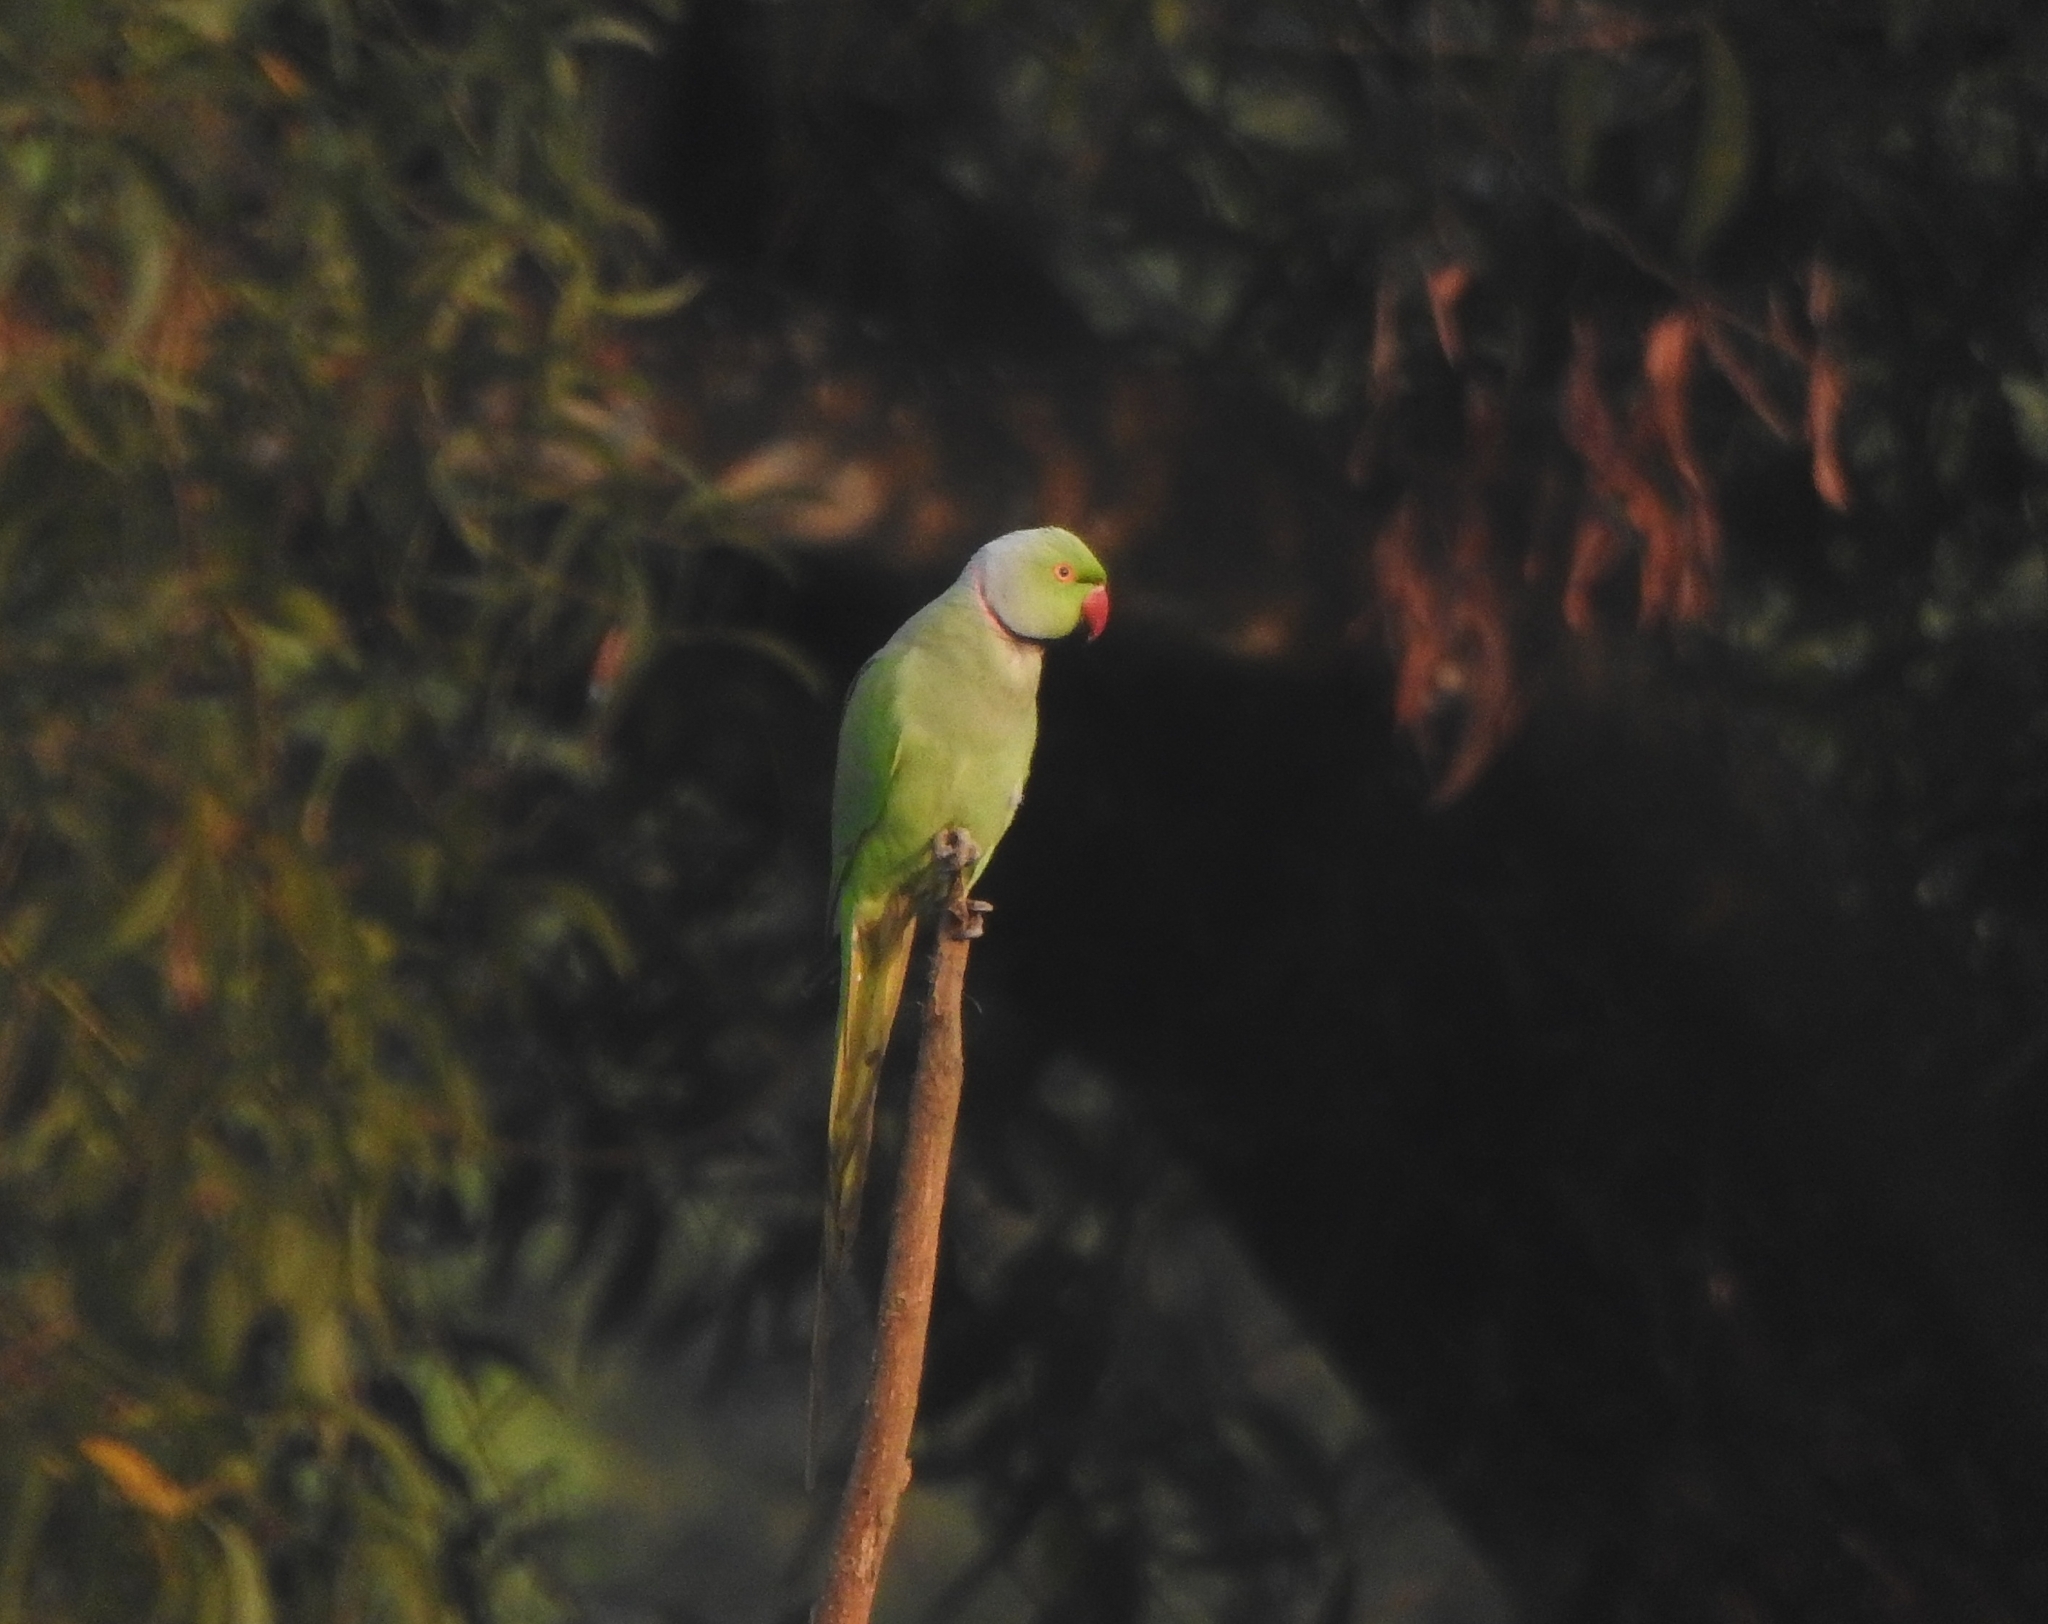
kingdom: Animalia
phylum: Chordata
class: Aves
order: Psittaciformes
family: Psittacidae
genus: Psittacula
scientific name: Psittacula krameri
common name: Rose-ringed parakeet
